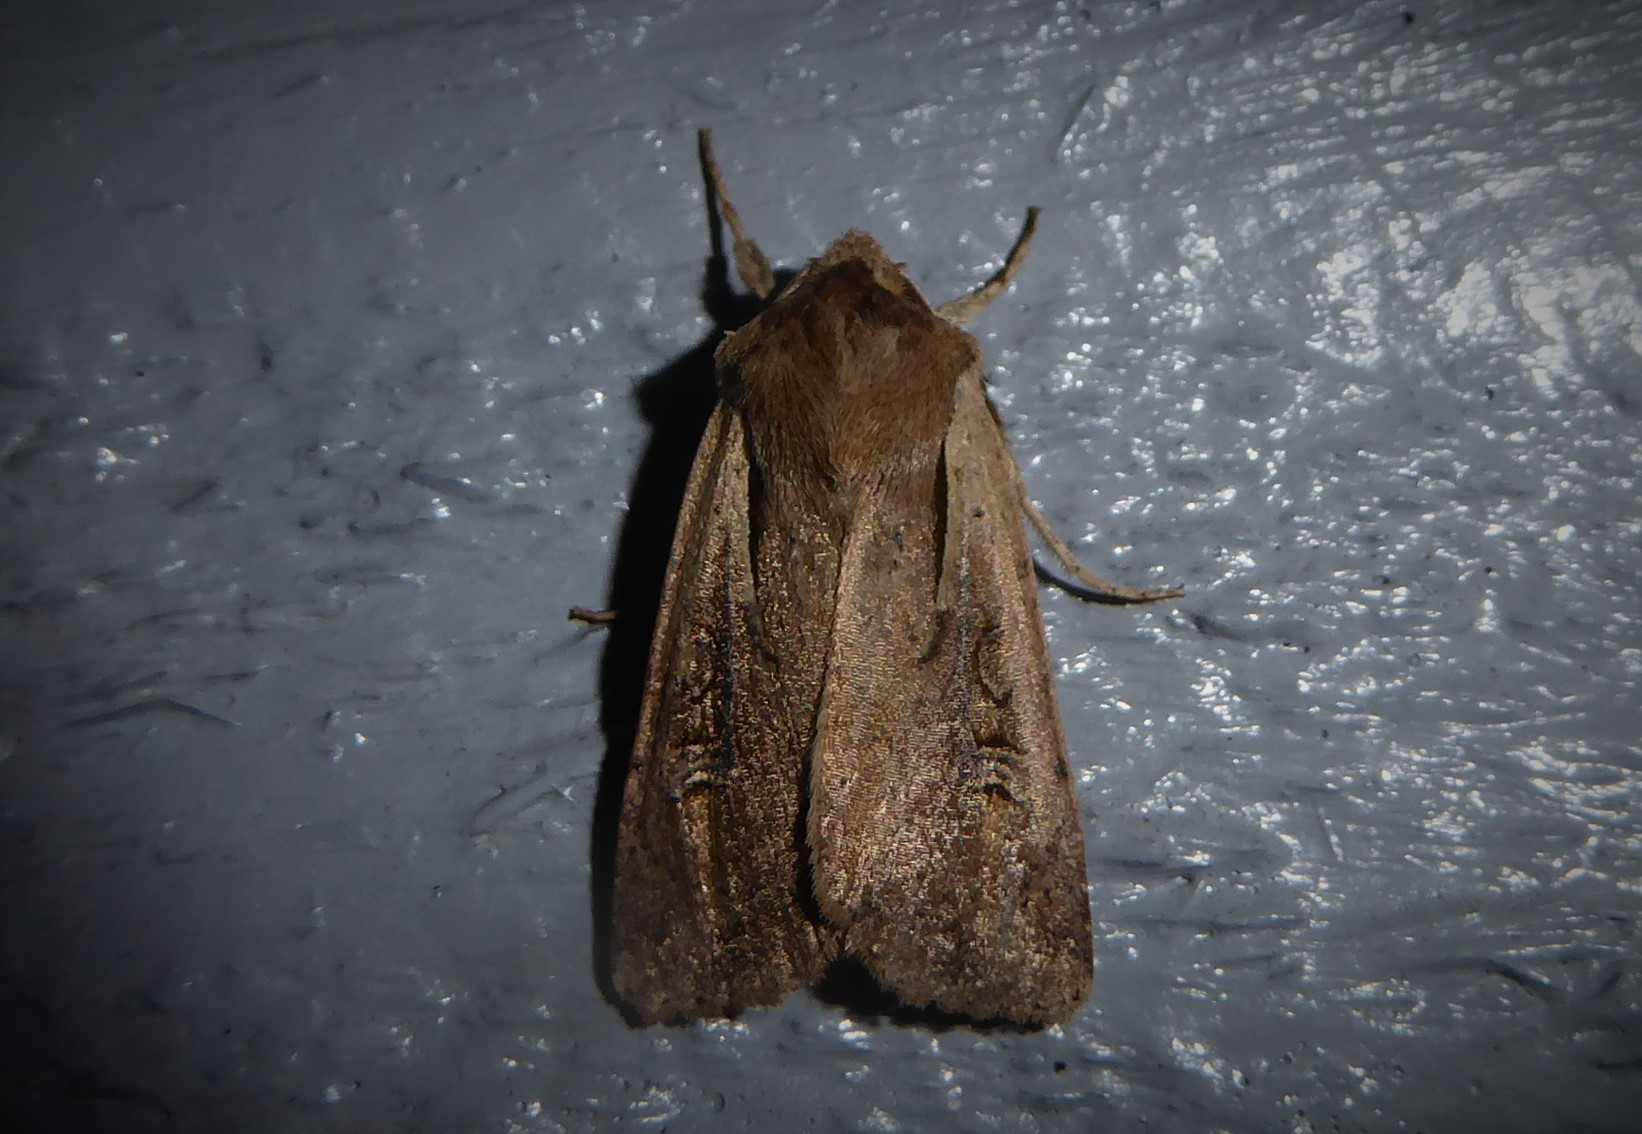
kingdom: Animalia
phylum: Arthropoda
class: Insecta
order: Lepidoptera
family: Noctuidae
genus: Ichneutica
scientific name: Ichneutica atristriga
